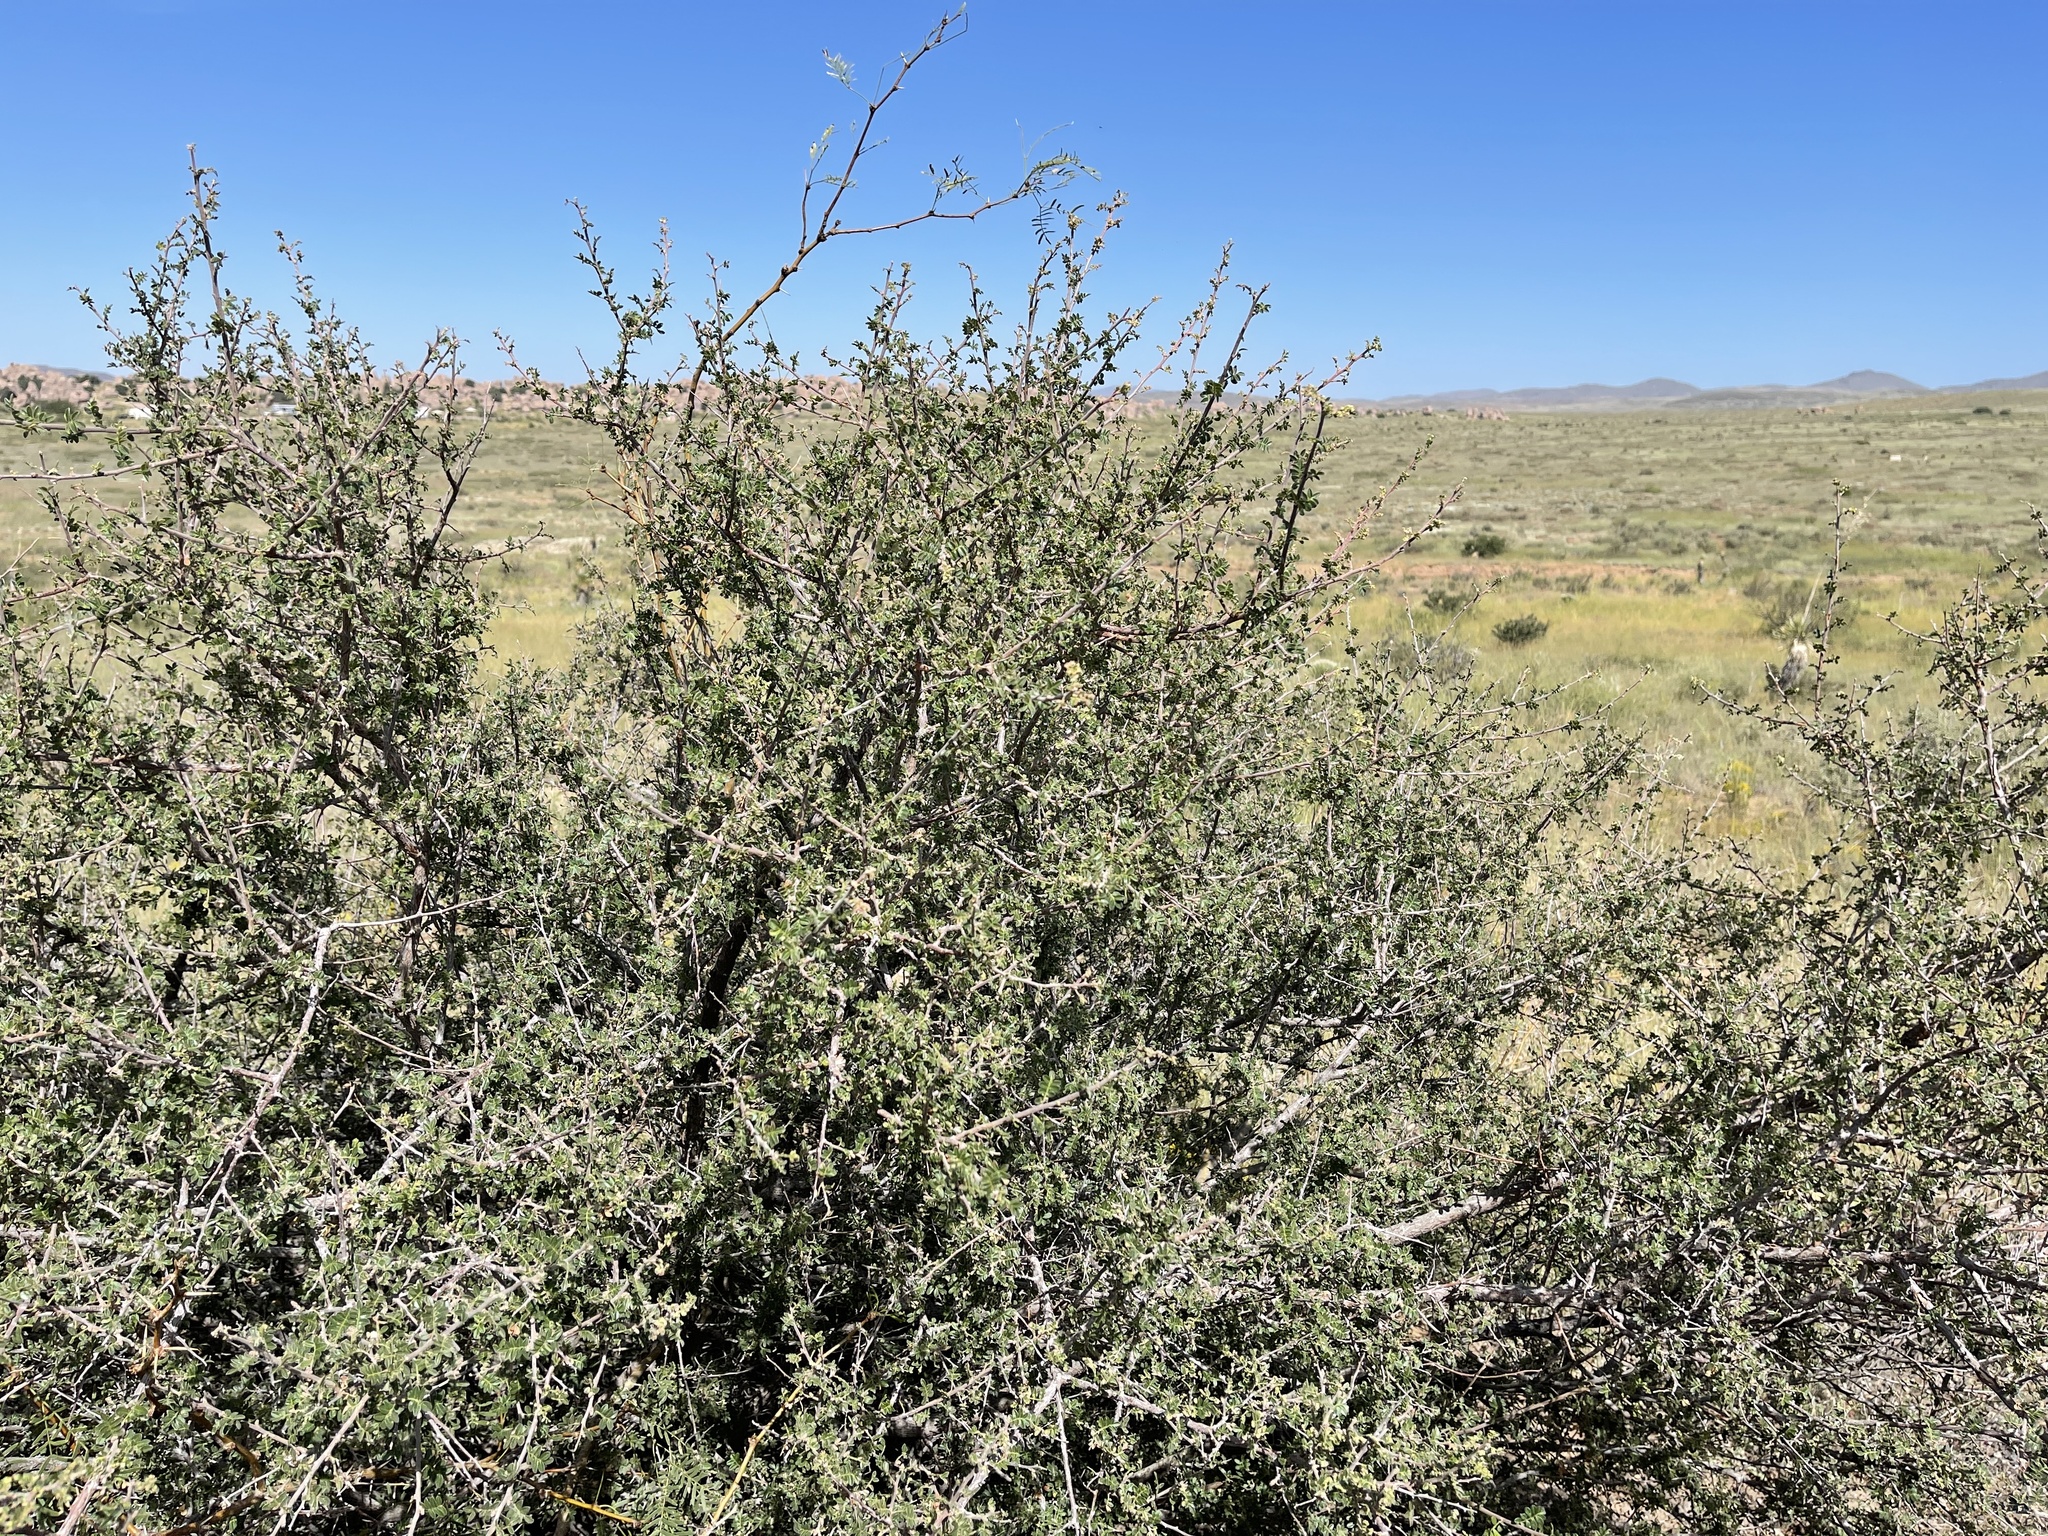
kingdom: Plantae
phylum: Tracheophyta
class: Magnoliopsida
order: Sapindales
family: Anacardiaceae
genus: Rhus
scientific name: Rhus microphylla
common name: Desert sumac
